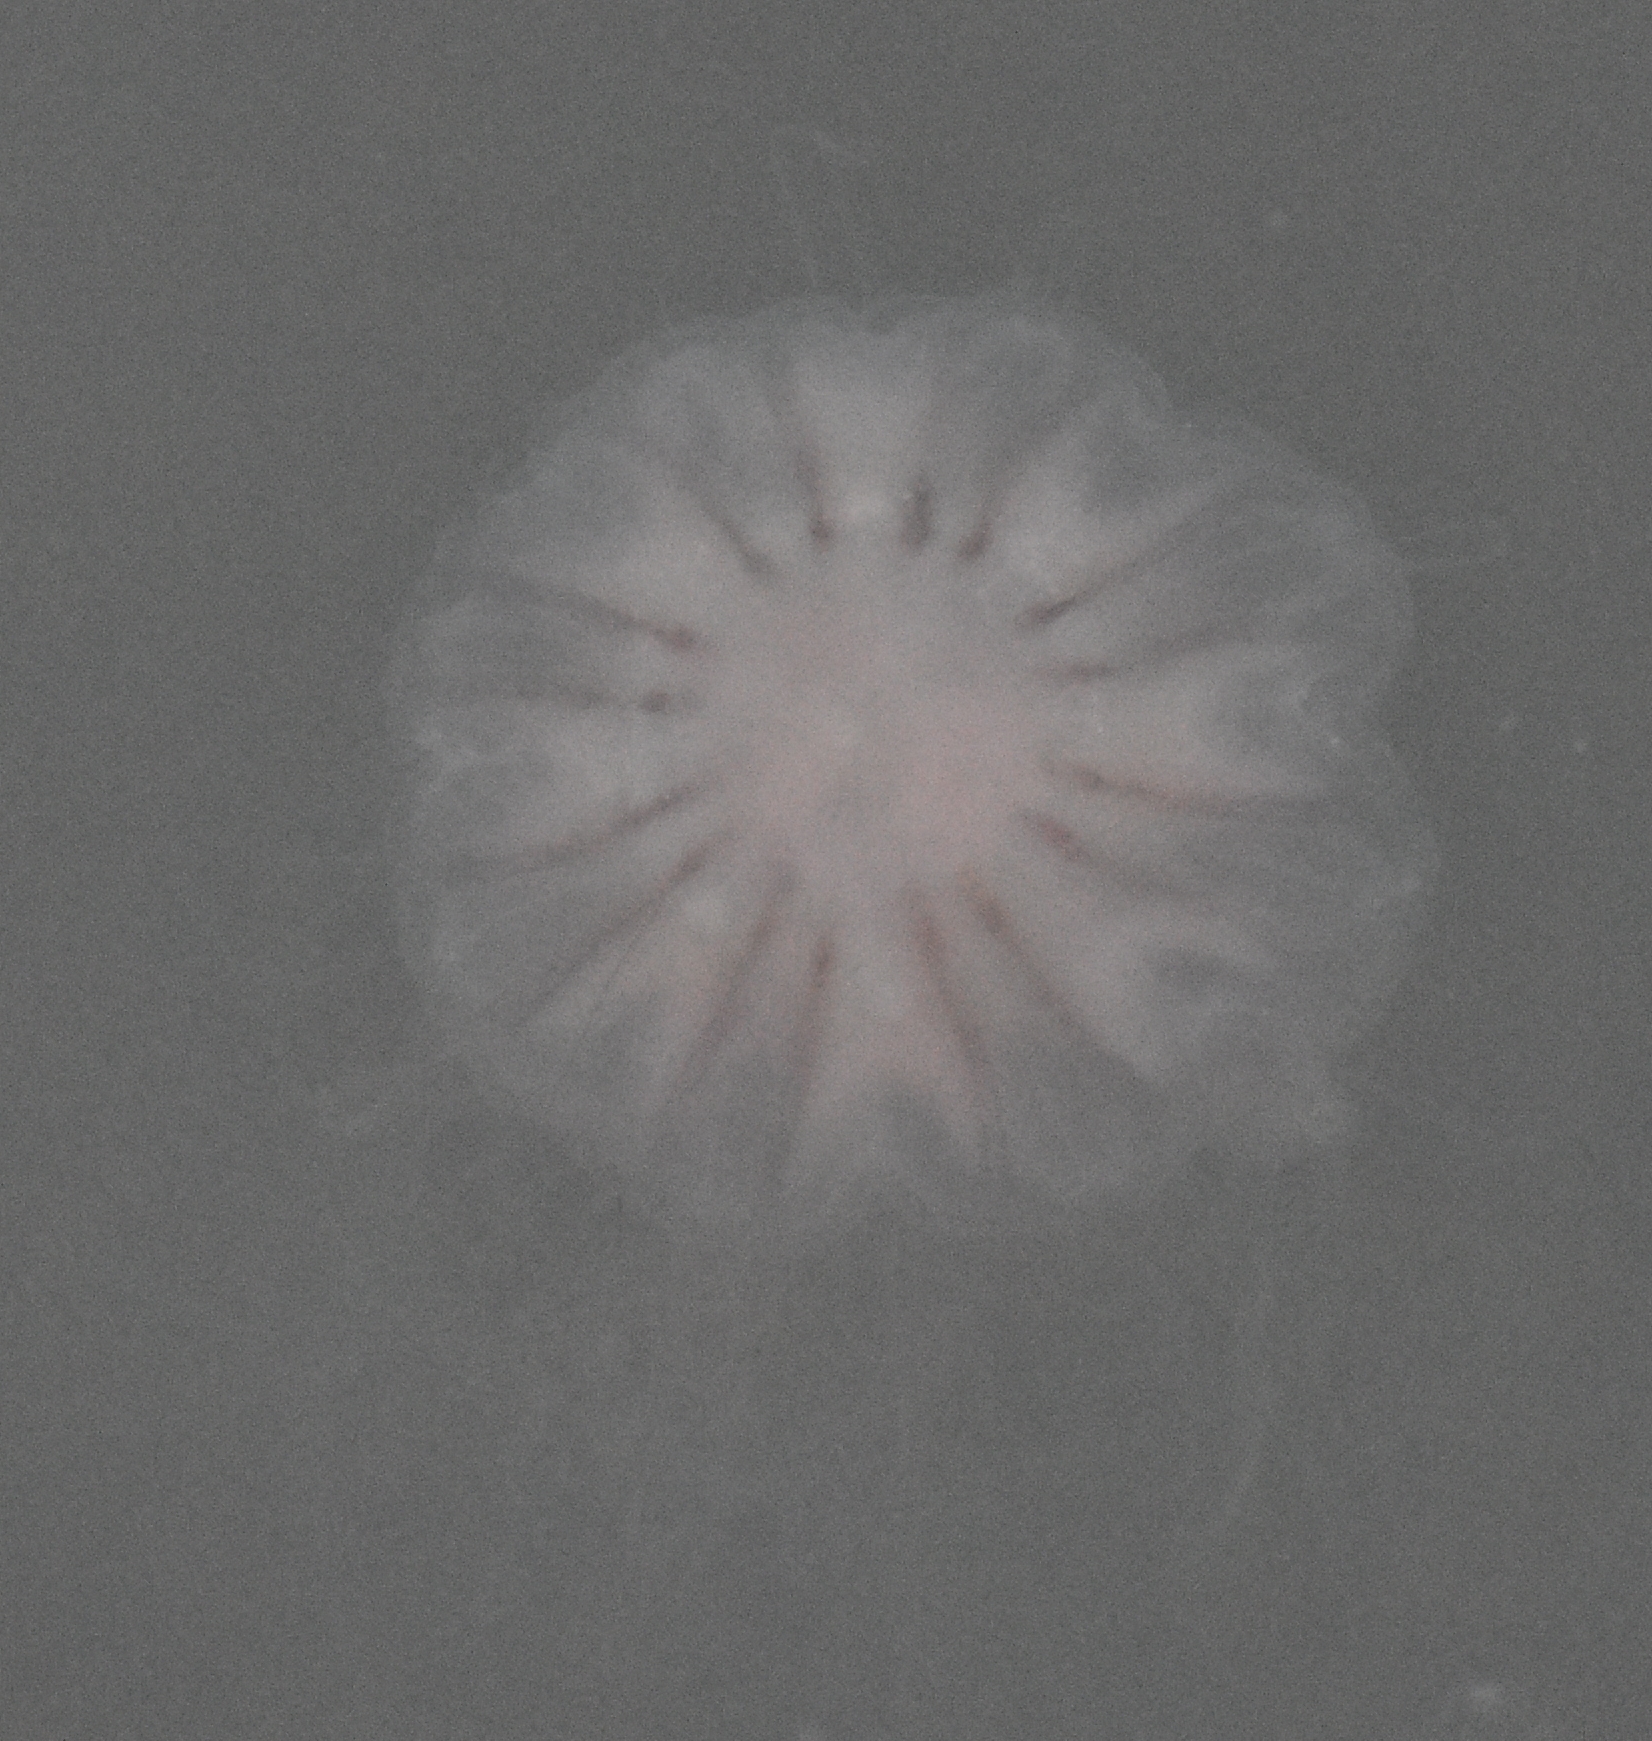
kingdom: Animalia
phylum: Cnidaria
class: Scyphozoa
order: Semaeostomeae
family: Cyaneidae
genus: Cyanea
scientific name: Cyanea versicolor
